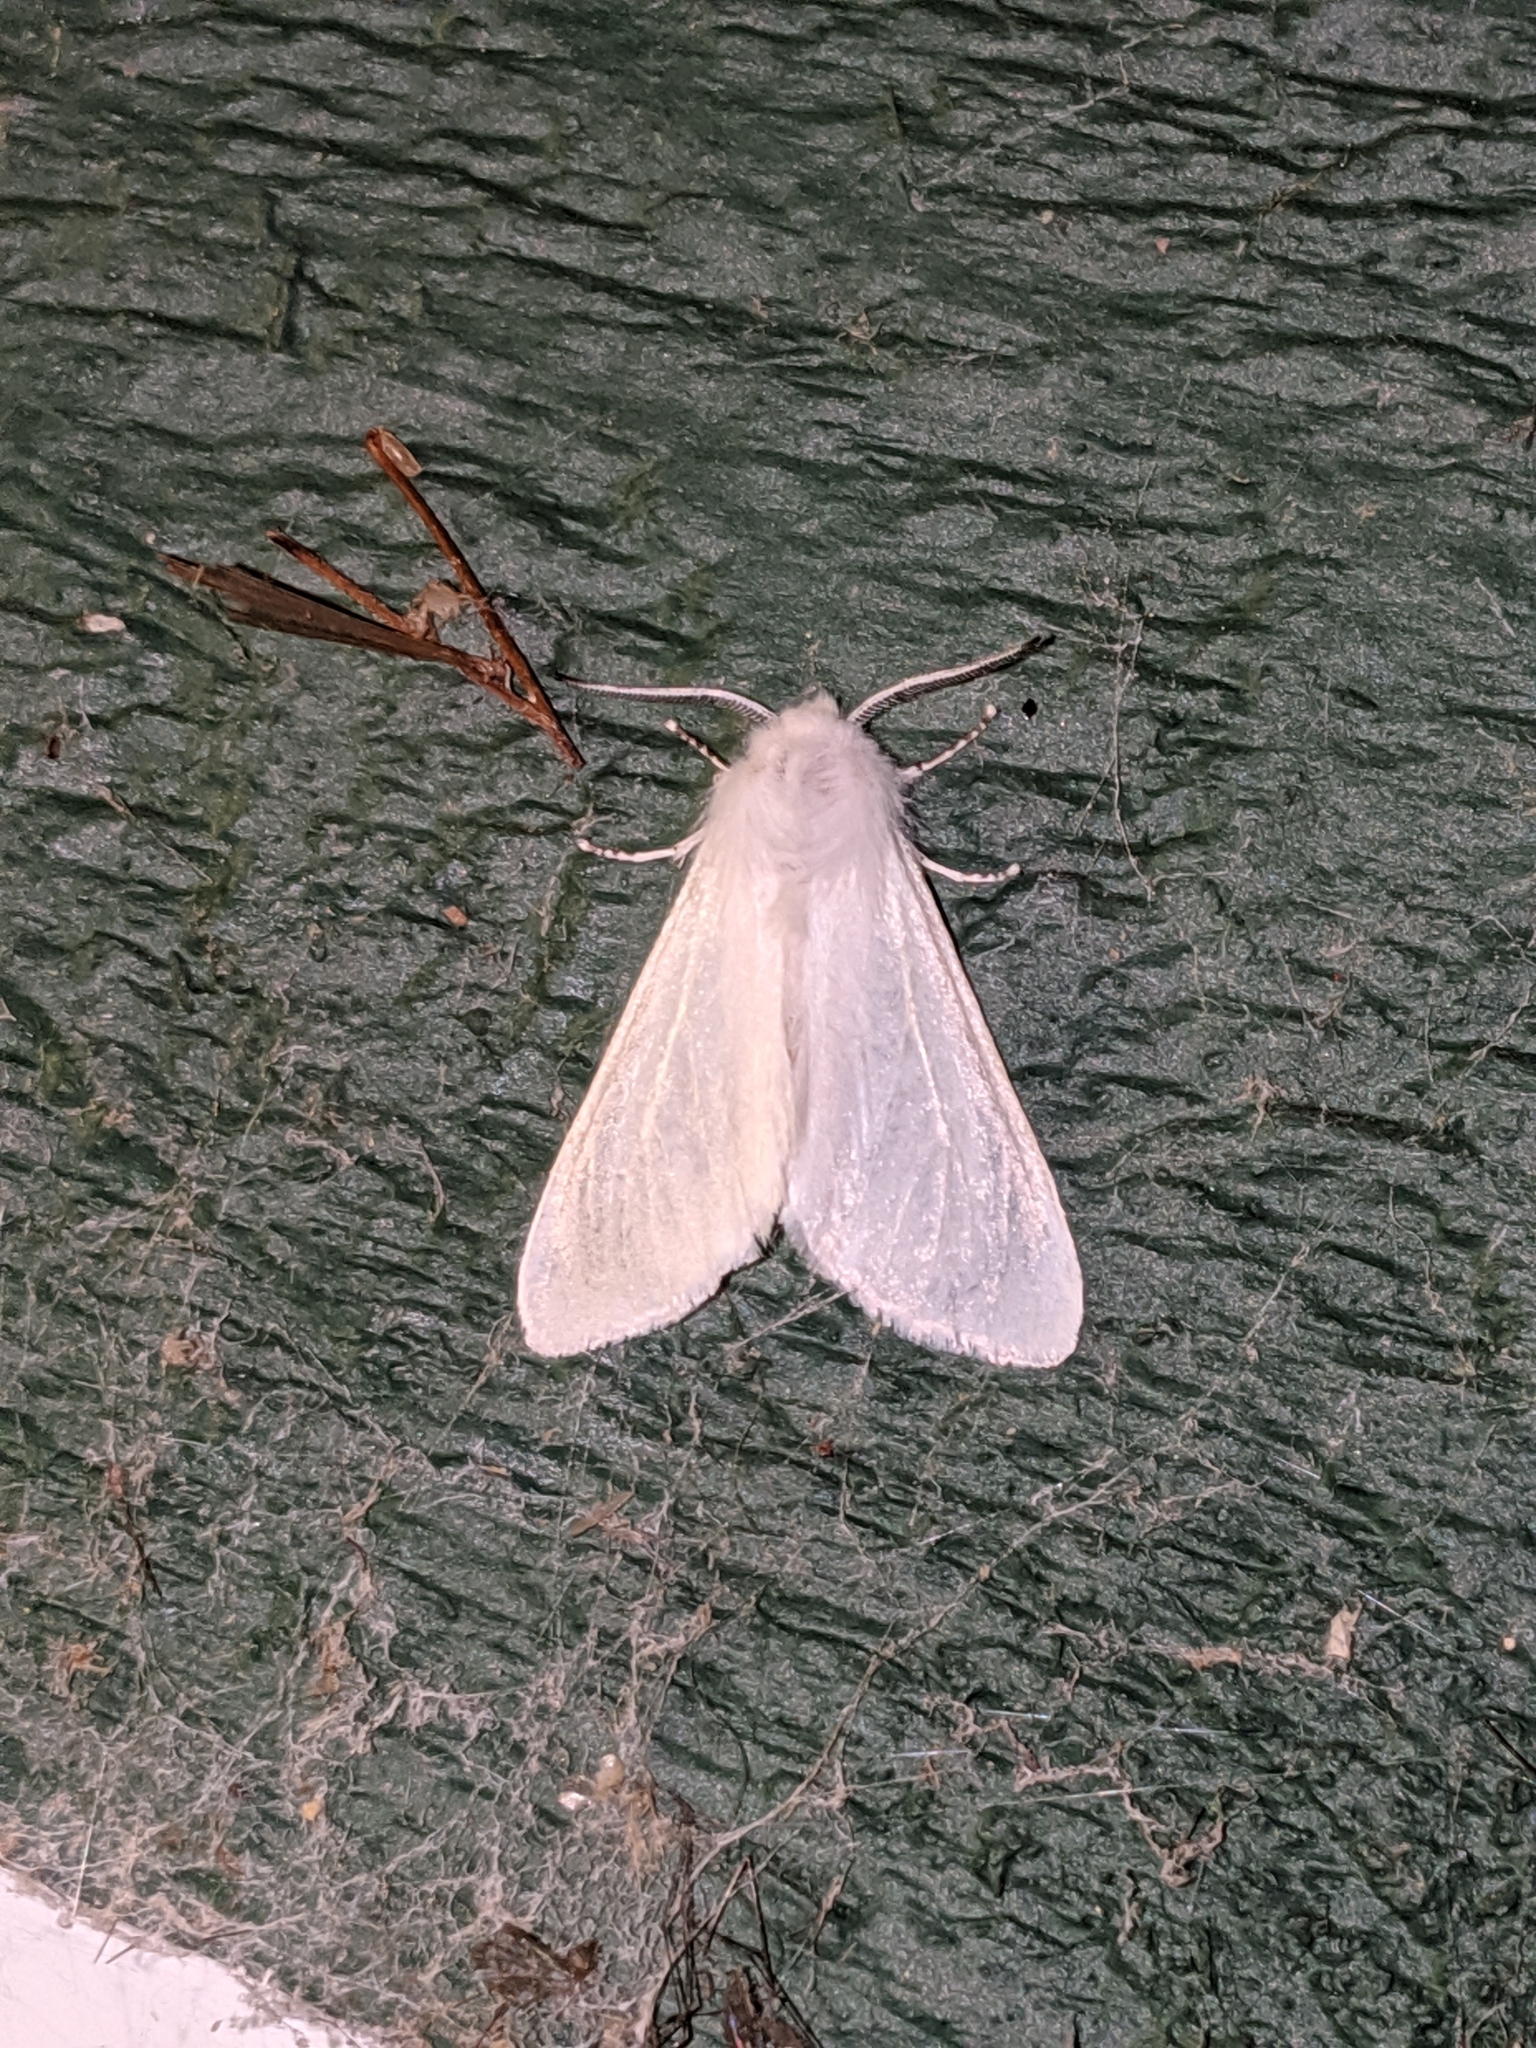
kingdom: Animalia
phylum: Arthropoda
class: Insecta
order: Lepidoptera
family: Erebidae
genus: Hyphantria
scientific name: Hyphantria cunea
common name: American white moth
